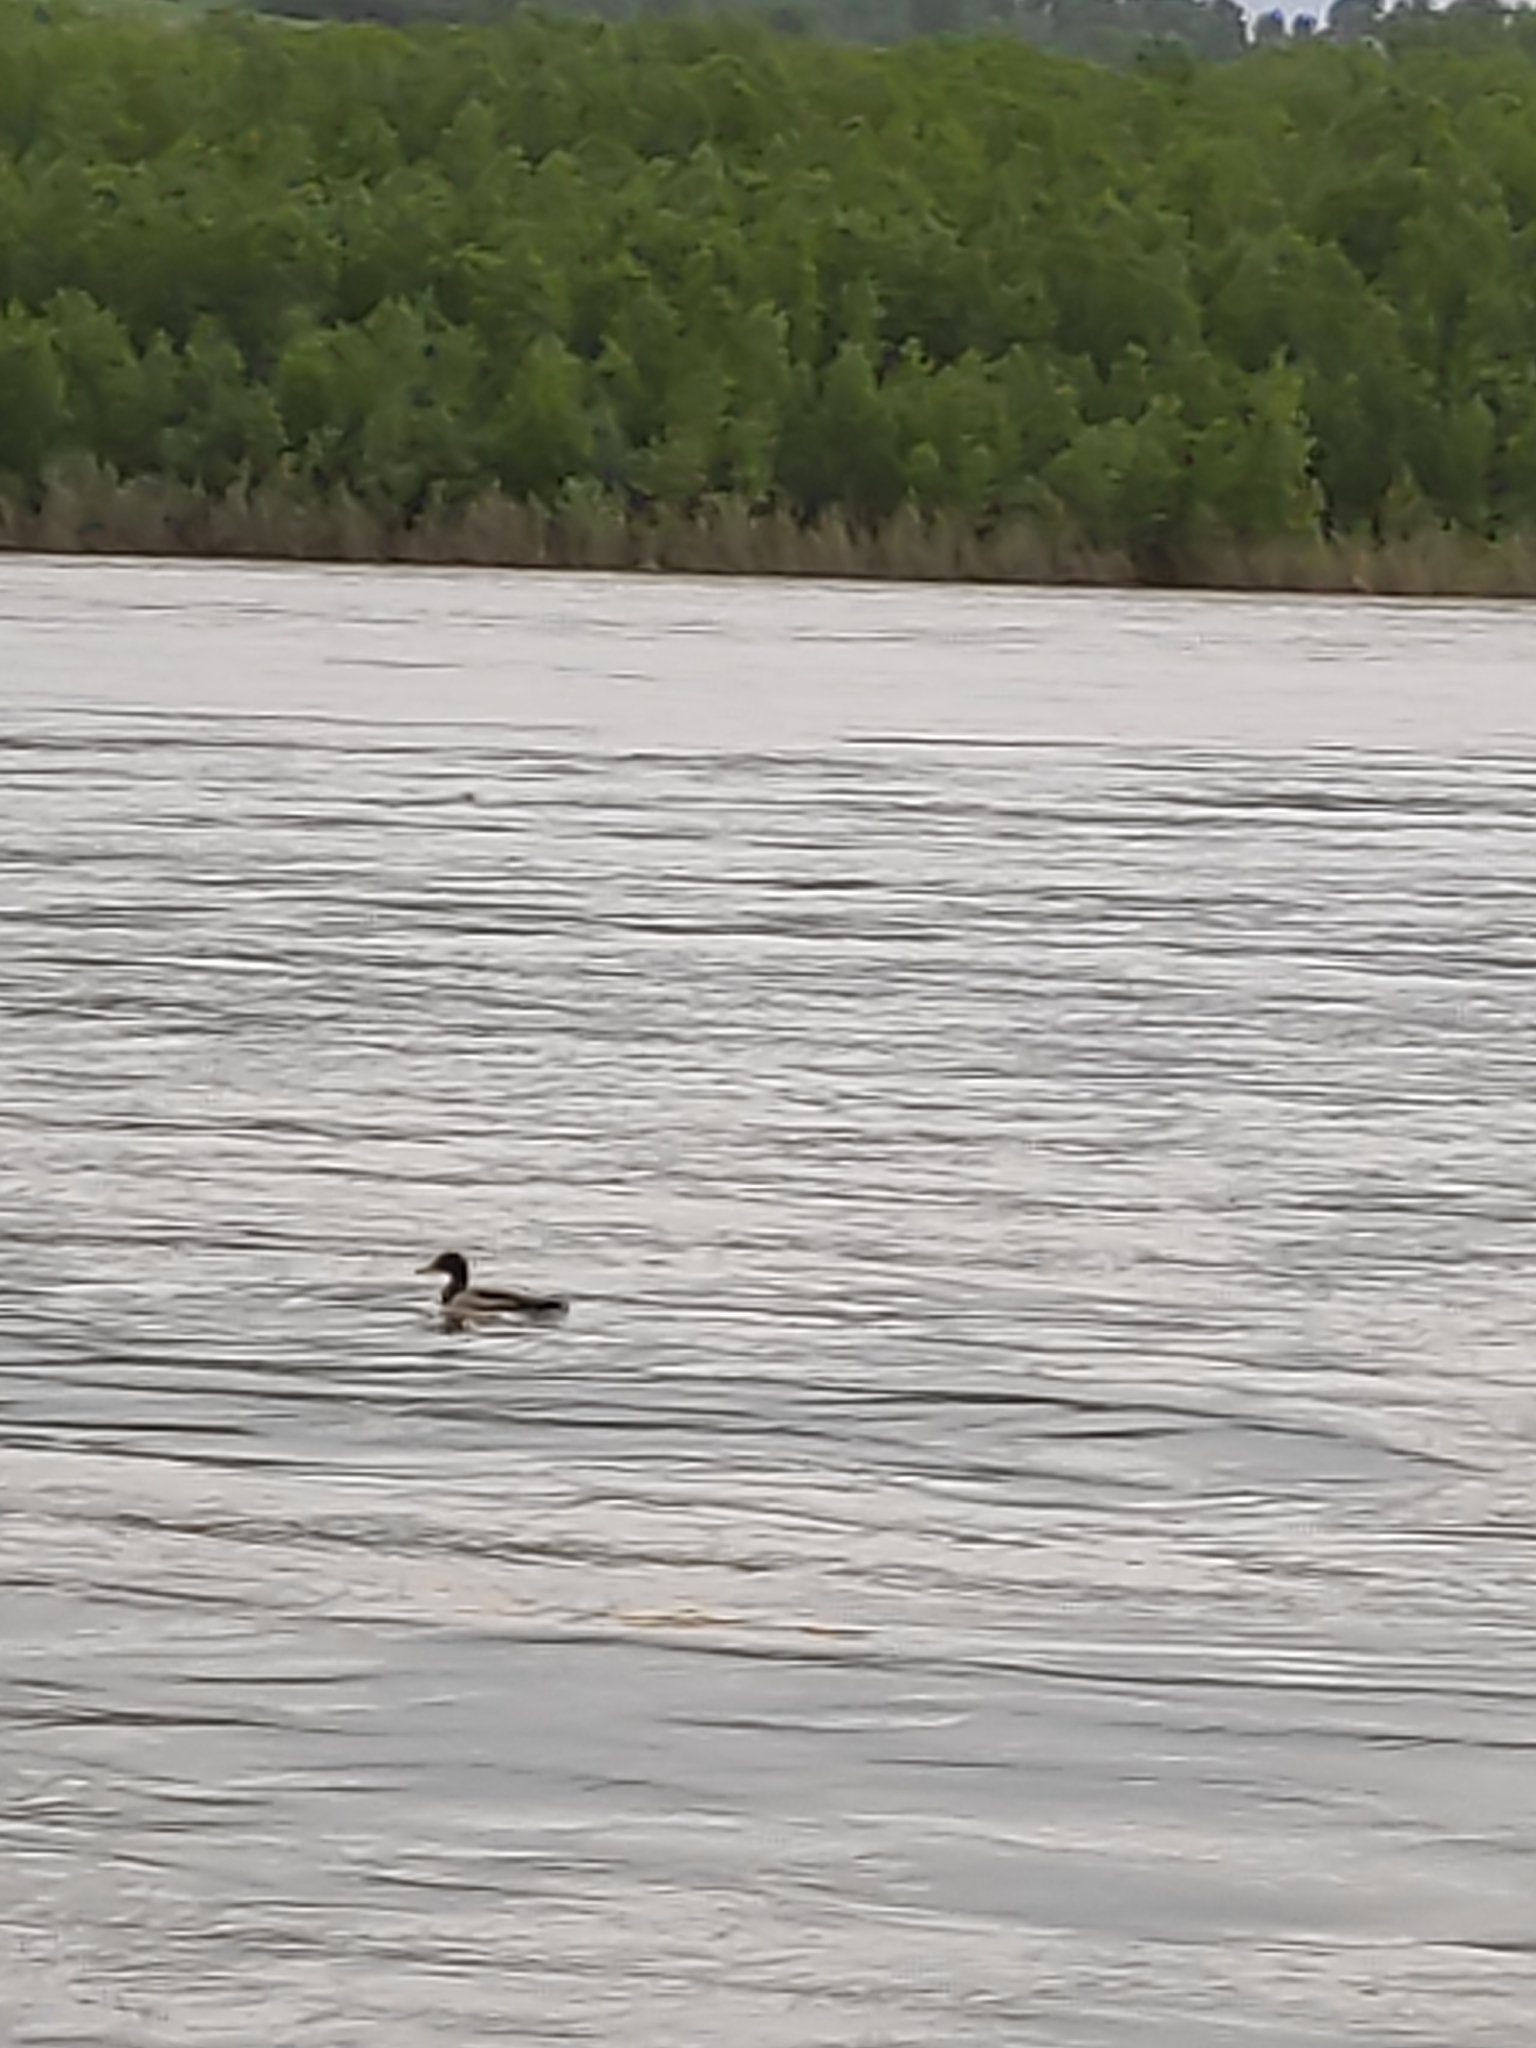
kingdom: Animalia
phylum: Chordata
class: Aves
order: Anseriformes
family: Anatidae
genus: Anas
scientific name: Anas platyrhynchos
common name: Mallard
